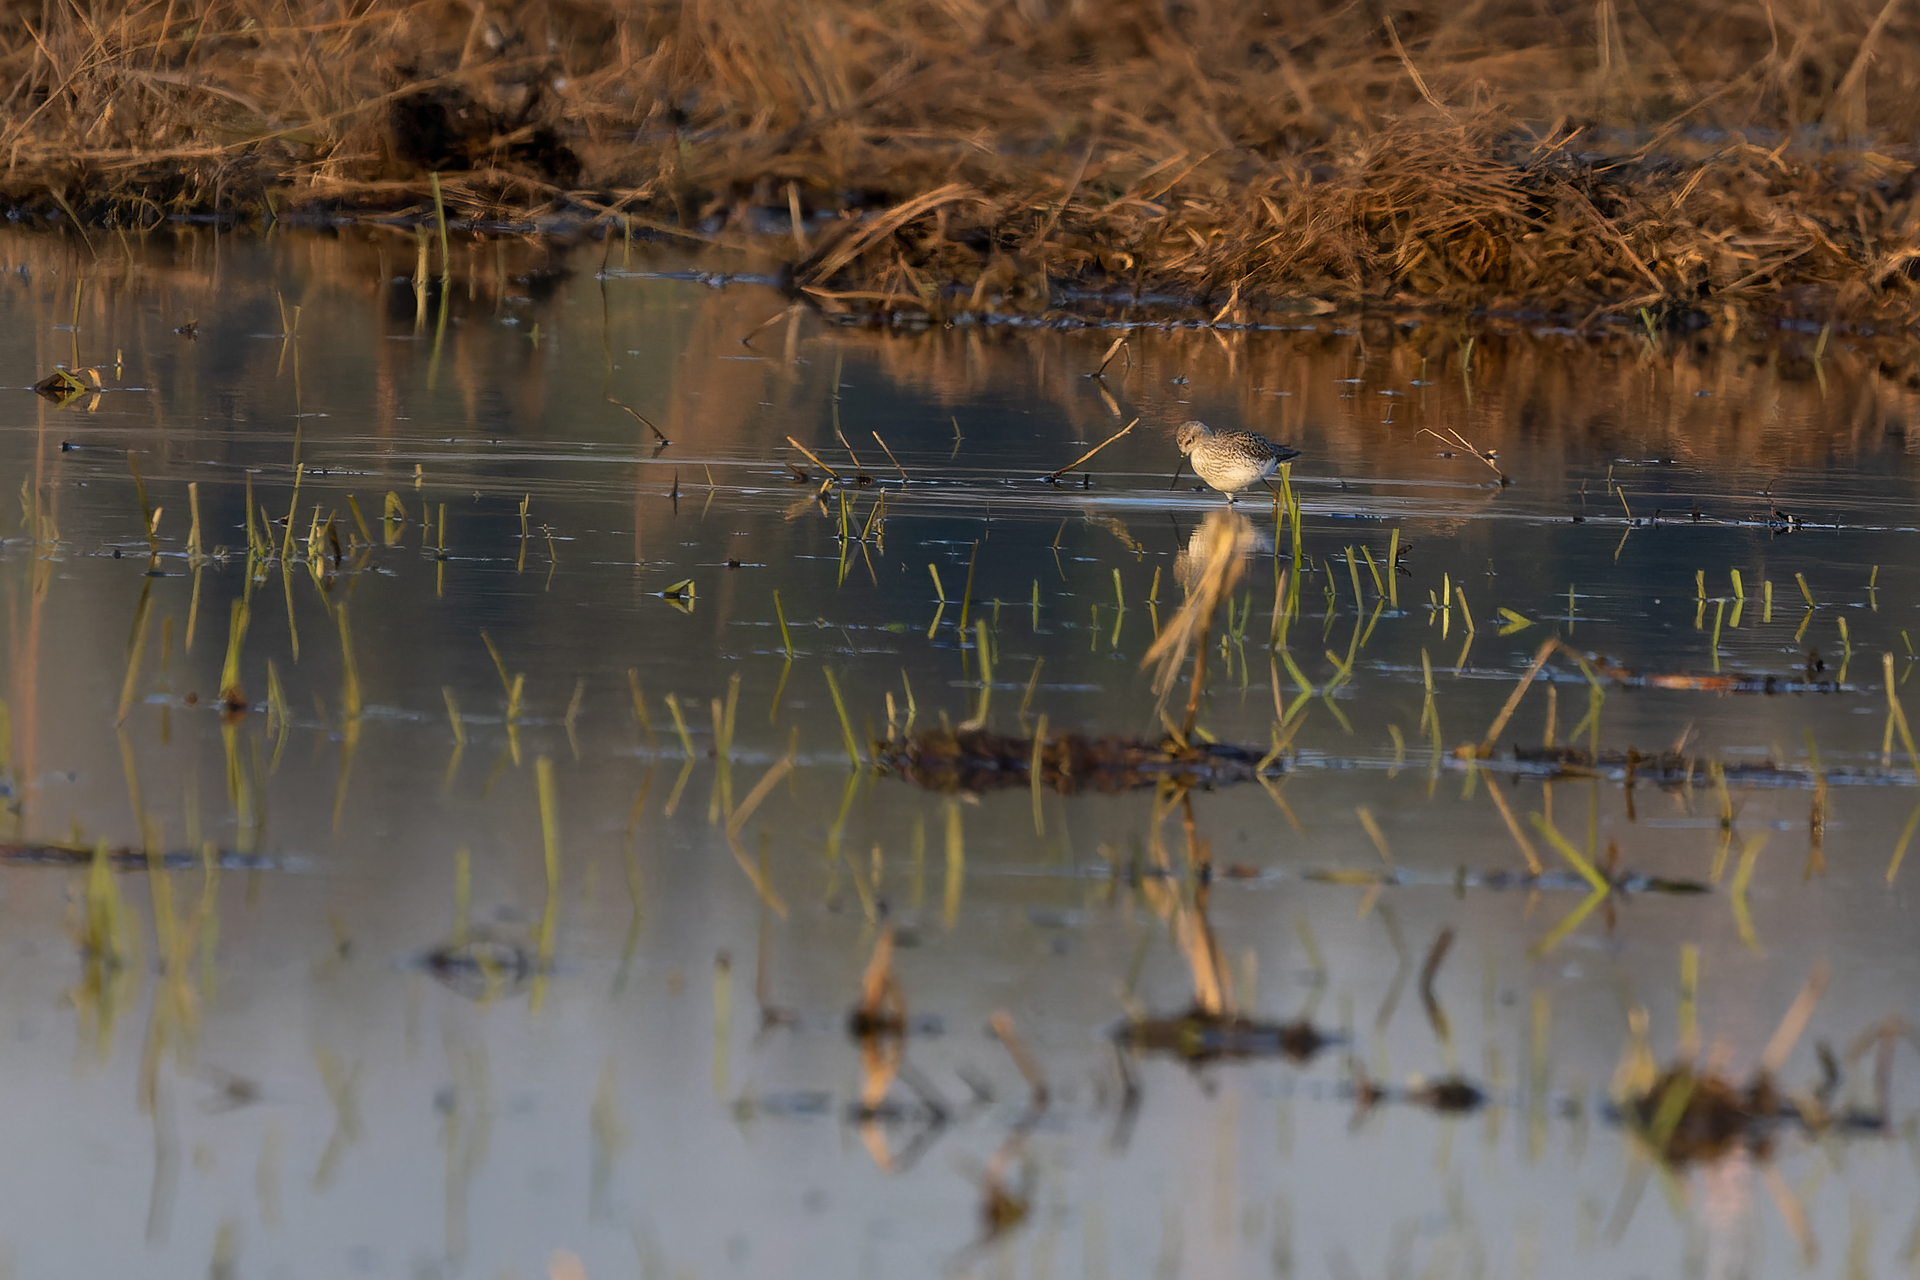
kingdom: Animalia
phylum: Chordata
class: Aves
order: Charadriiformes
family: Scolopacidae
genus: Tringa
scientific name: Tringa stagnatilis
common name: Marsh sandpiper
